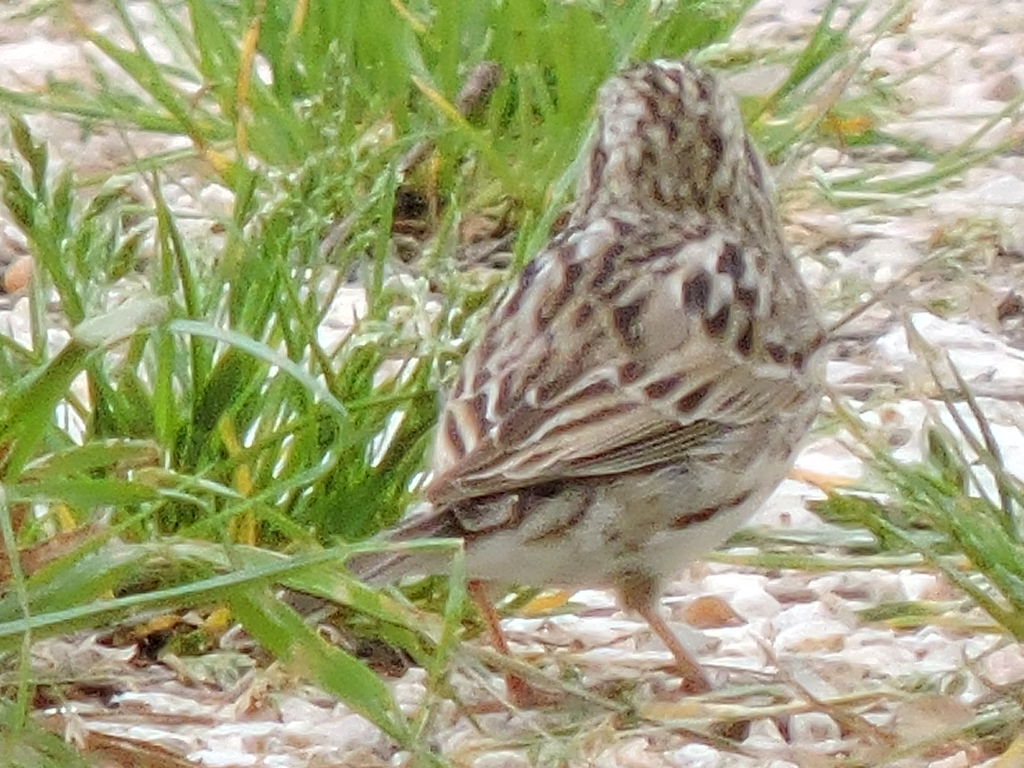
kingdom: Animalia
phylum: Chordata
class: Aves
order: Passeriformes
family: Passerellidae
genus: Pooecetes
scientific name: Pooecetes gramineus
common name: Vesper sparrow
